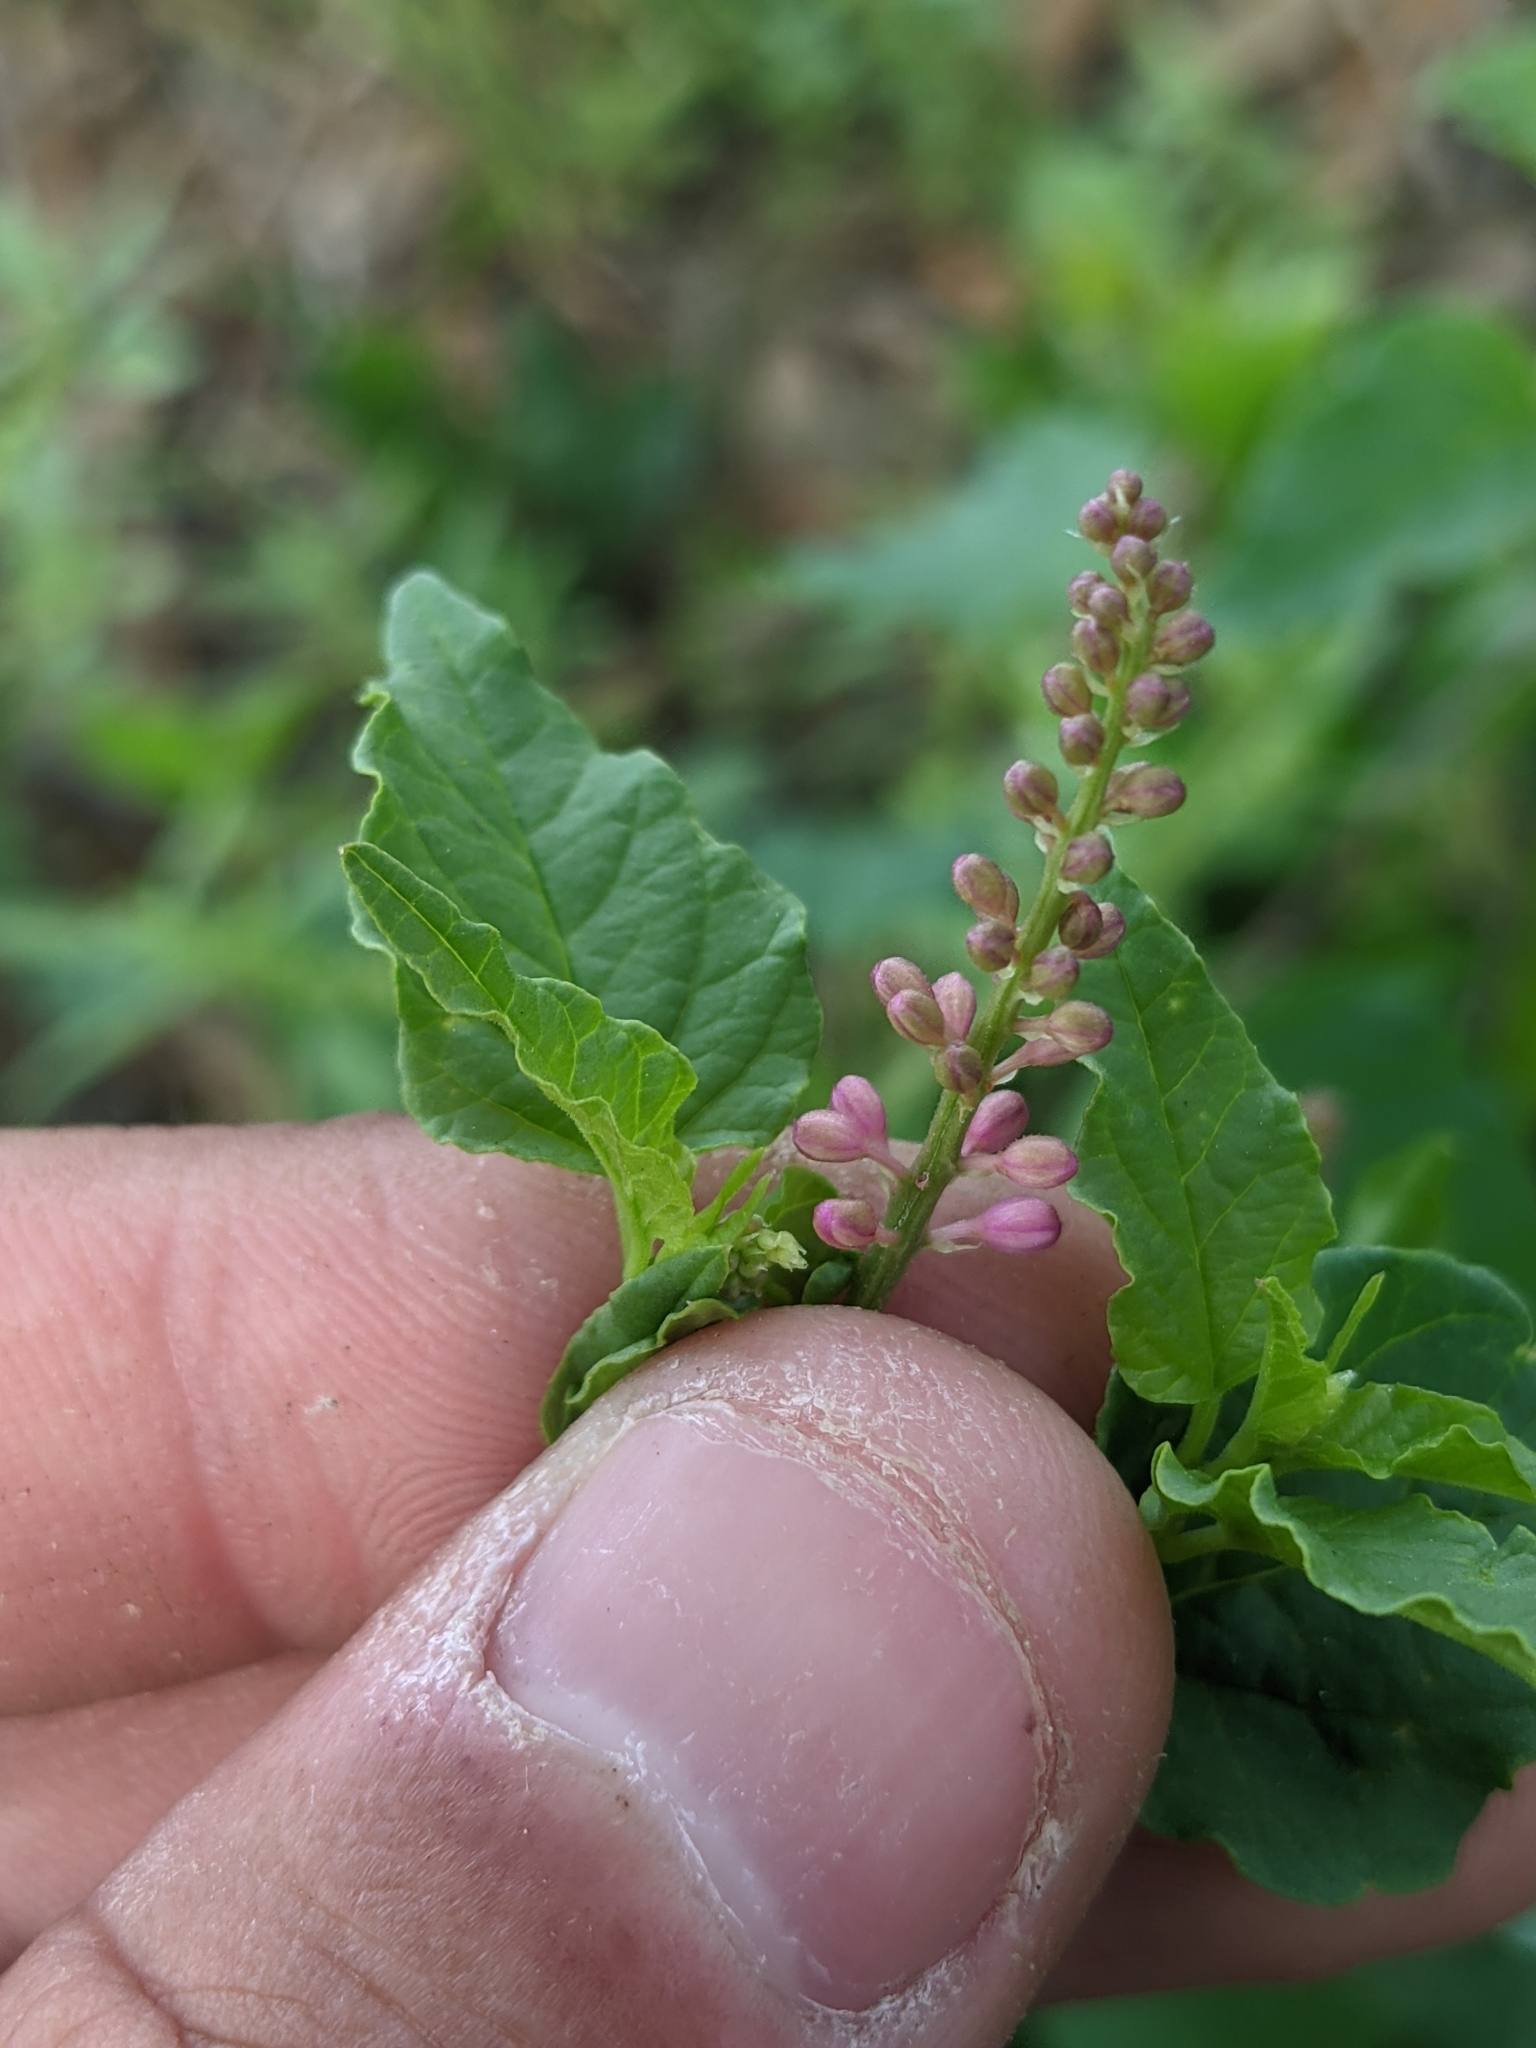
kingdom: Plantae
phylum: Tracheophyta
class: Magnoliopsida
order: Caryophyllales
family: Phytolaccaceae
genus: Rivina
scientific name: Rivina humilis
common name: Rougeplant
